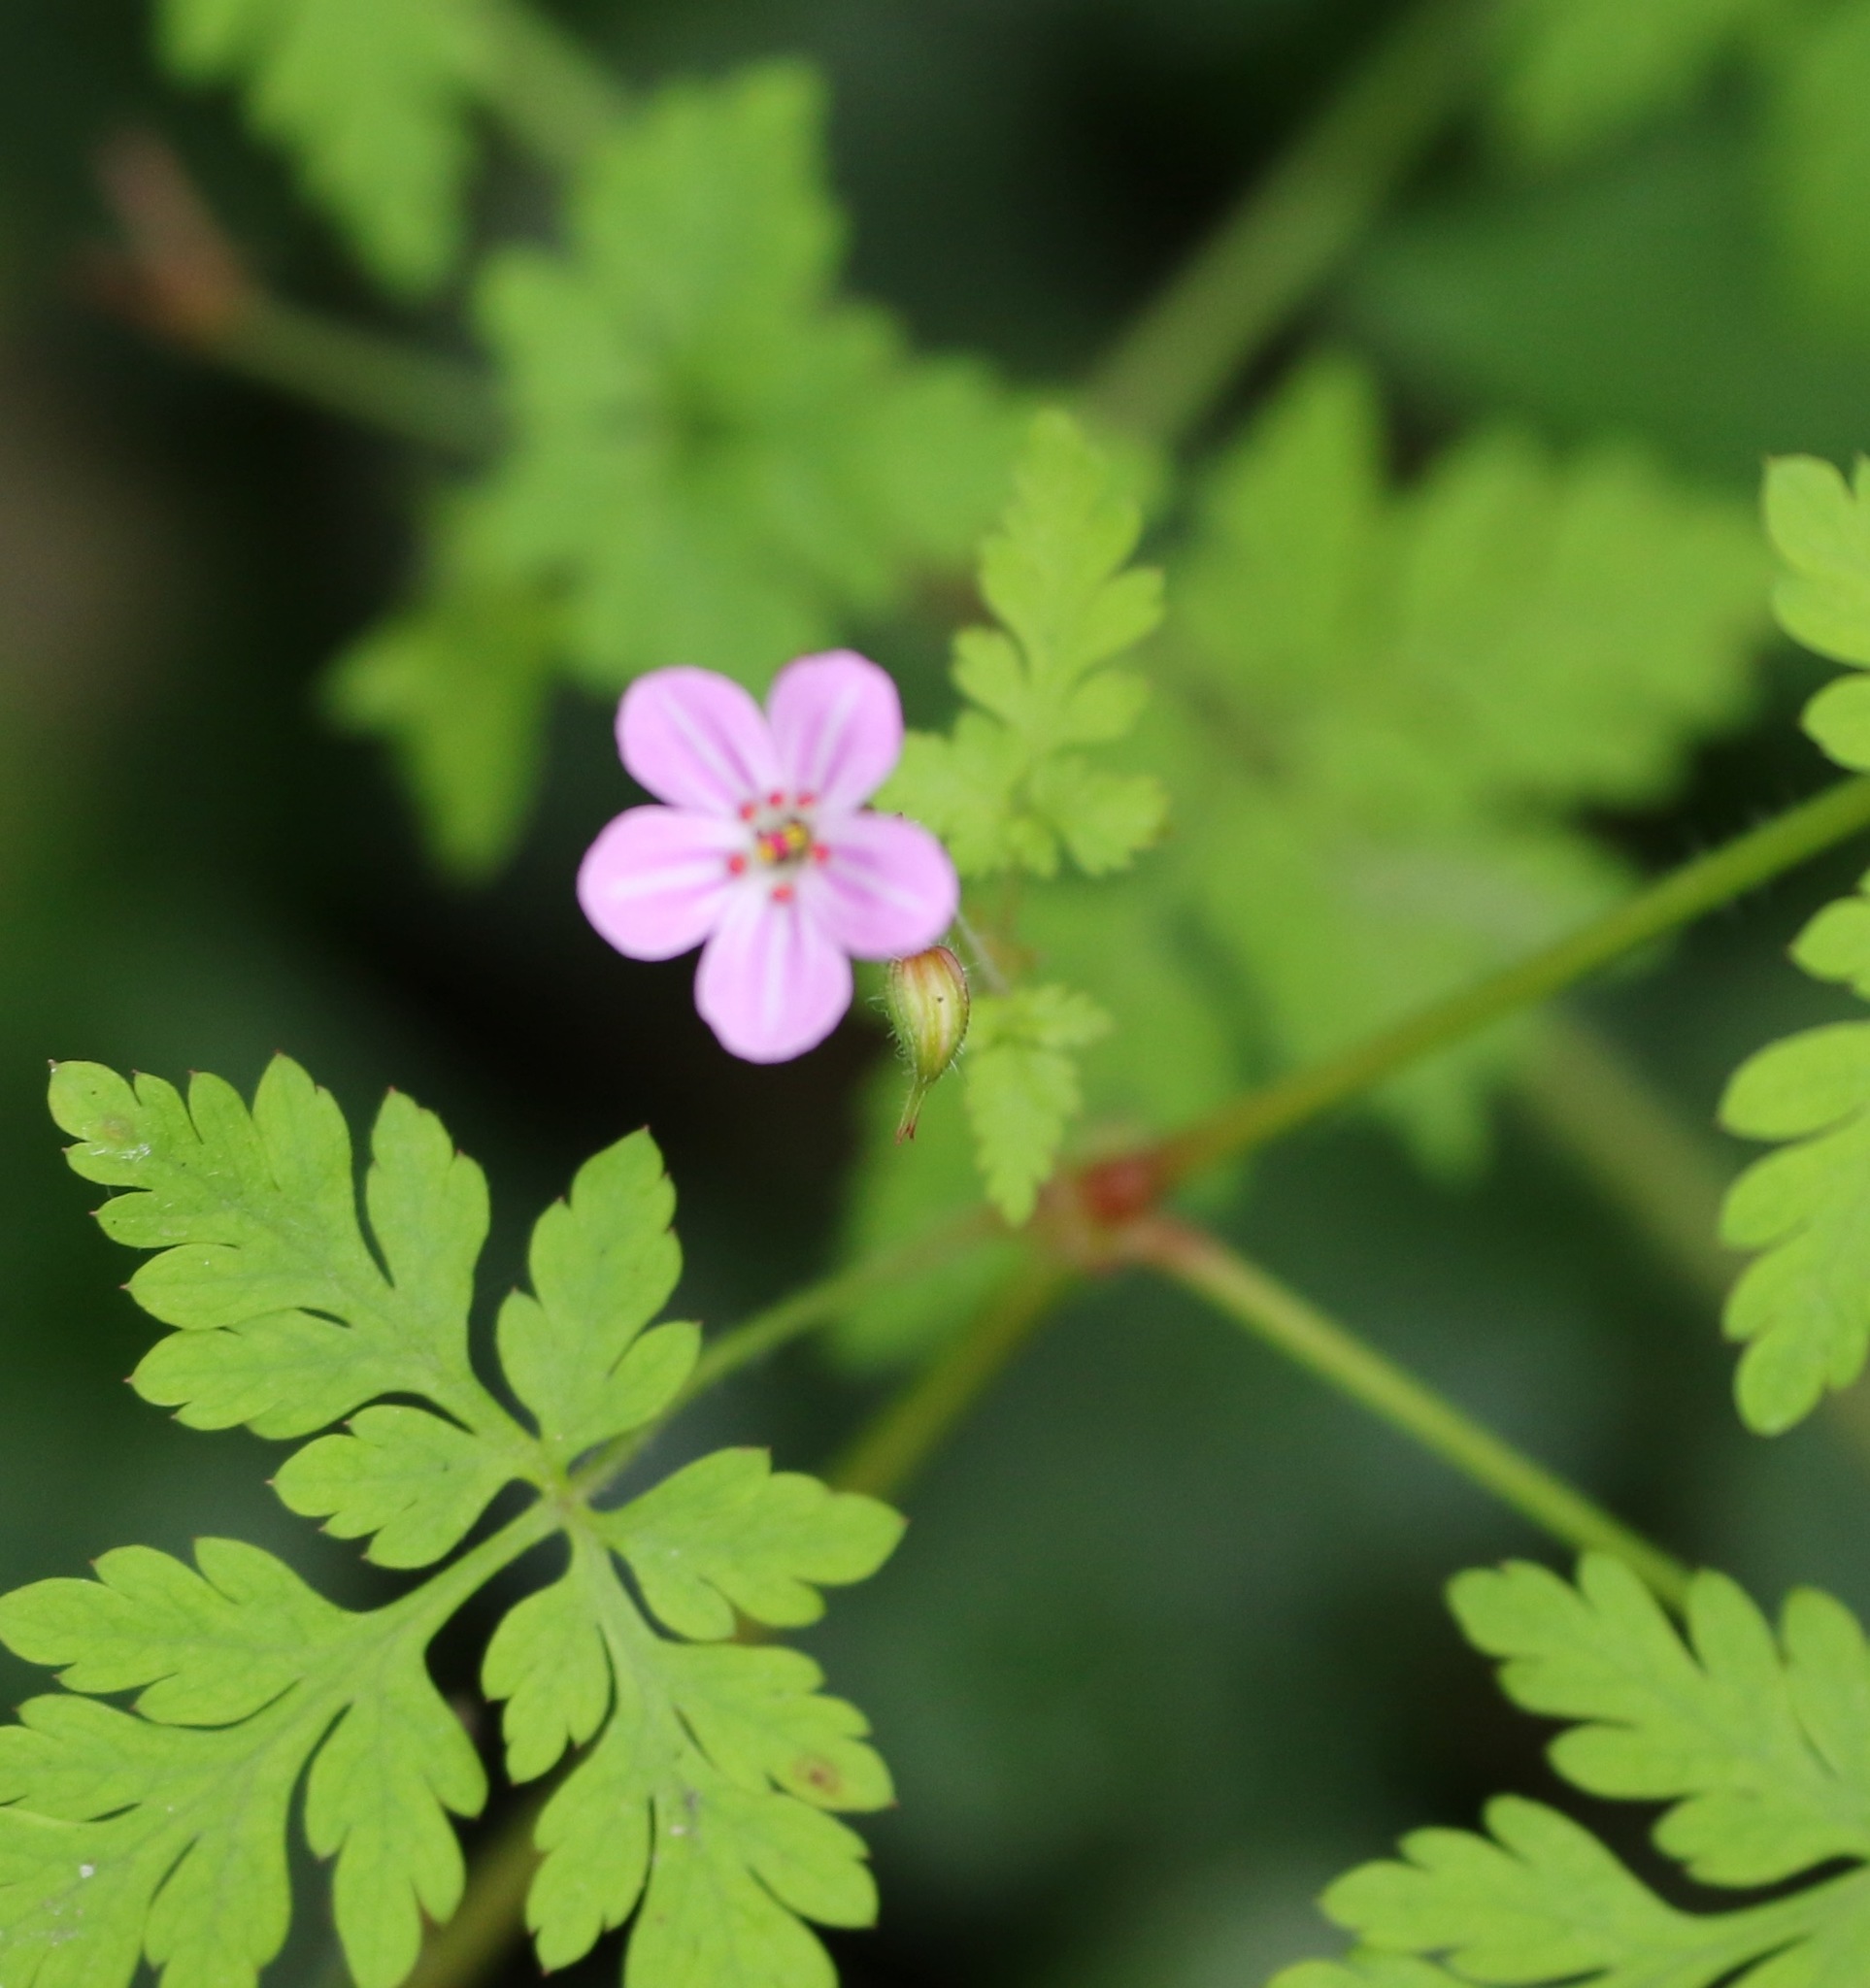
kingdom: Plantae
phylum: Tracheophyta
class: Magnoliopsida
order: Geraniales
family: Geraniaceae
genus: Geranium
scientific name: Geranium robertianum
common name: Herb-robert
